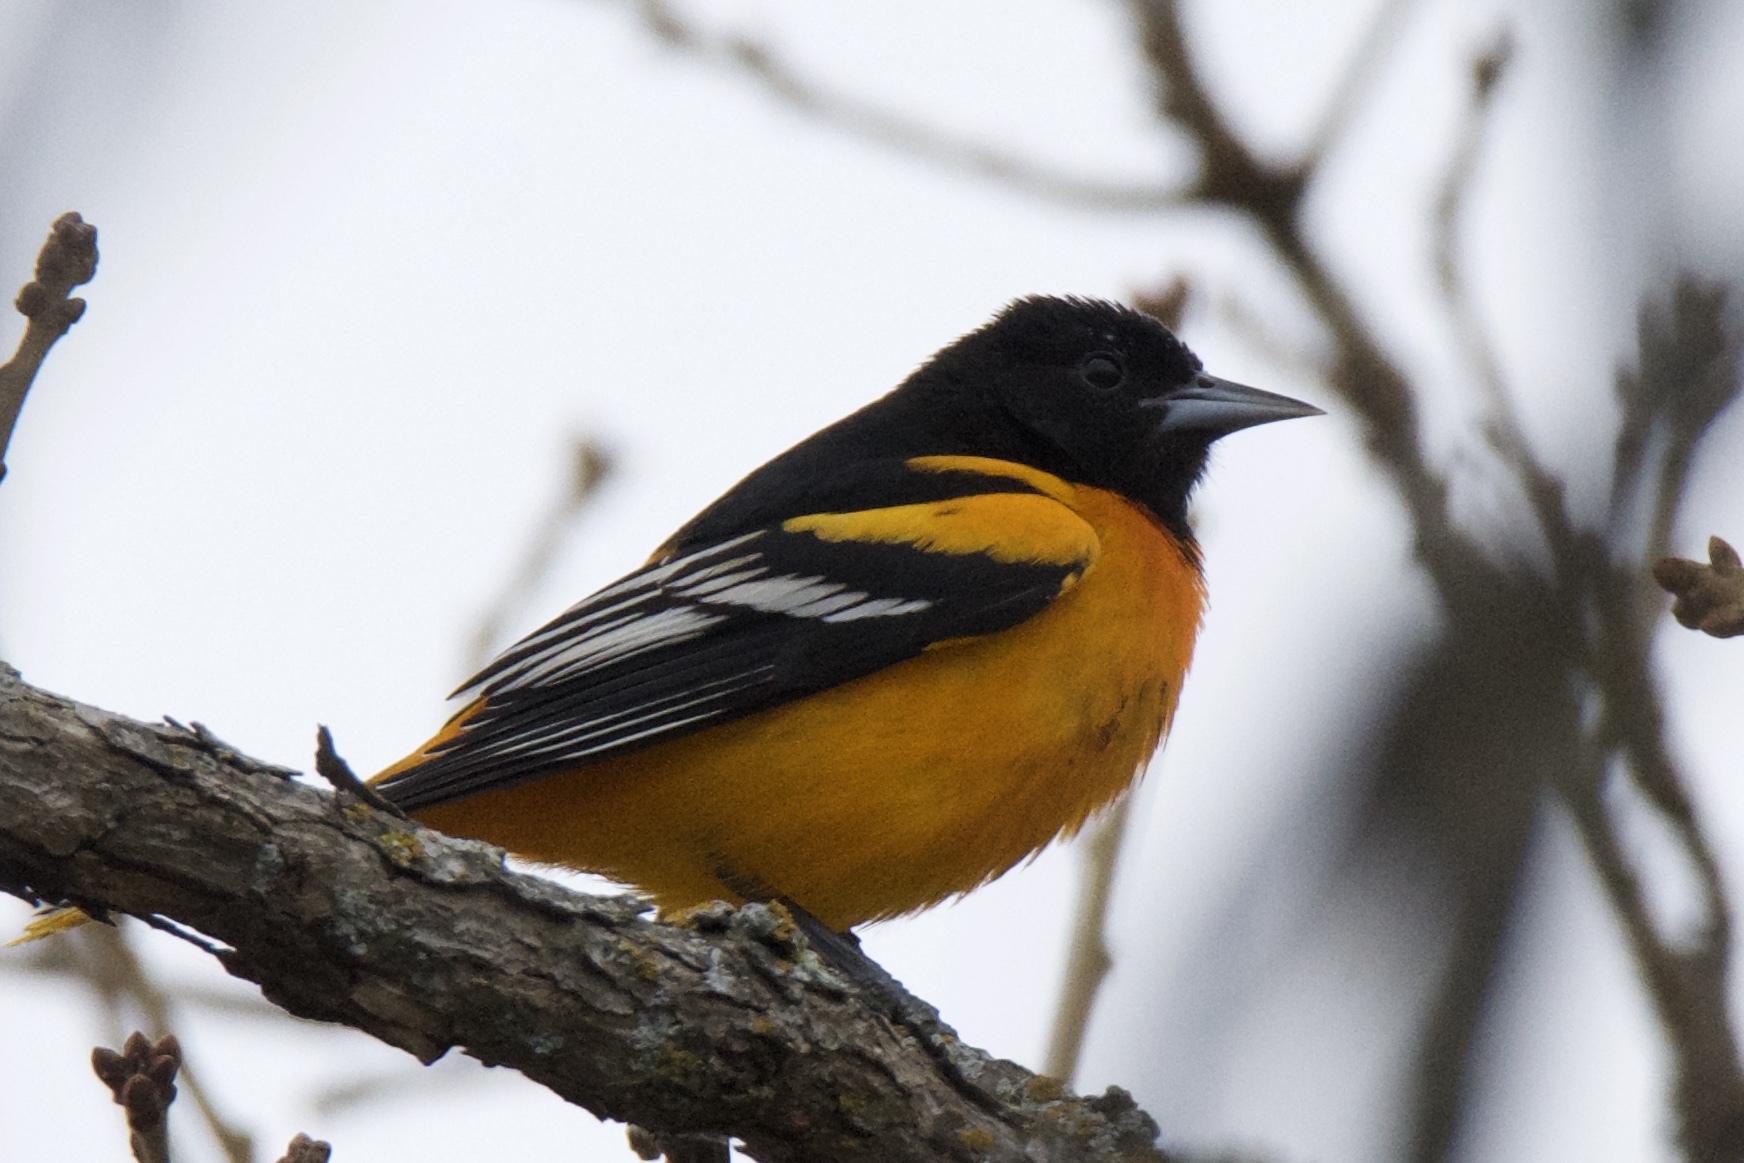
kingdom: Animalia
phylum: Chordata
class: Aves
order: Passeriformes
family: Icteridae
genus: Icterus
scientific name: Icterus galbula
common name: Baltimore oriole
